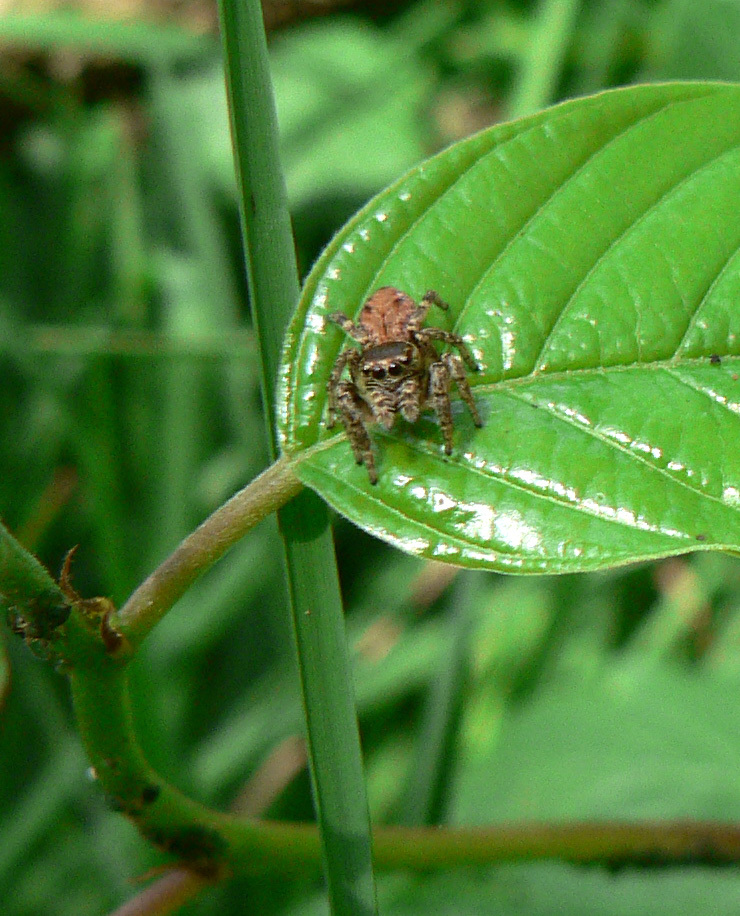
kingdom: Animalia
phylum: Arthropoda
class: Arachnida
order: Araneae
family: Salticidae
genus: Evarcha
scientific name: Evarcha arcuata
